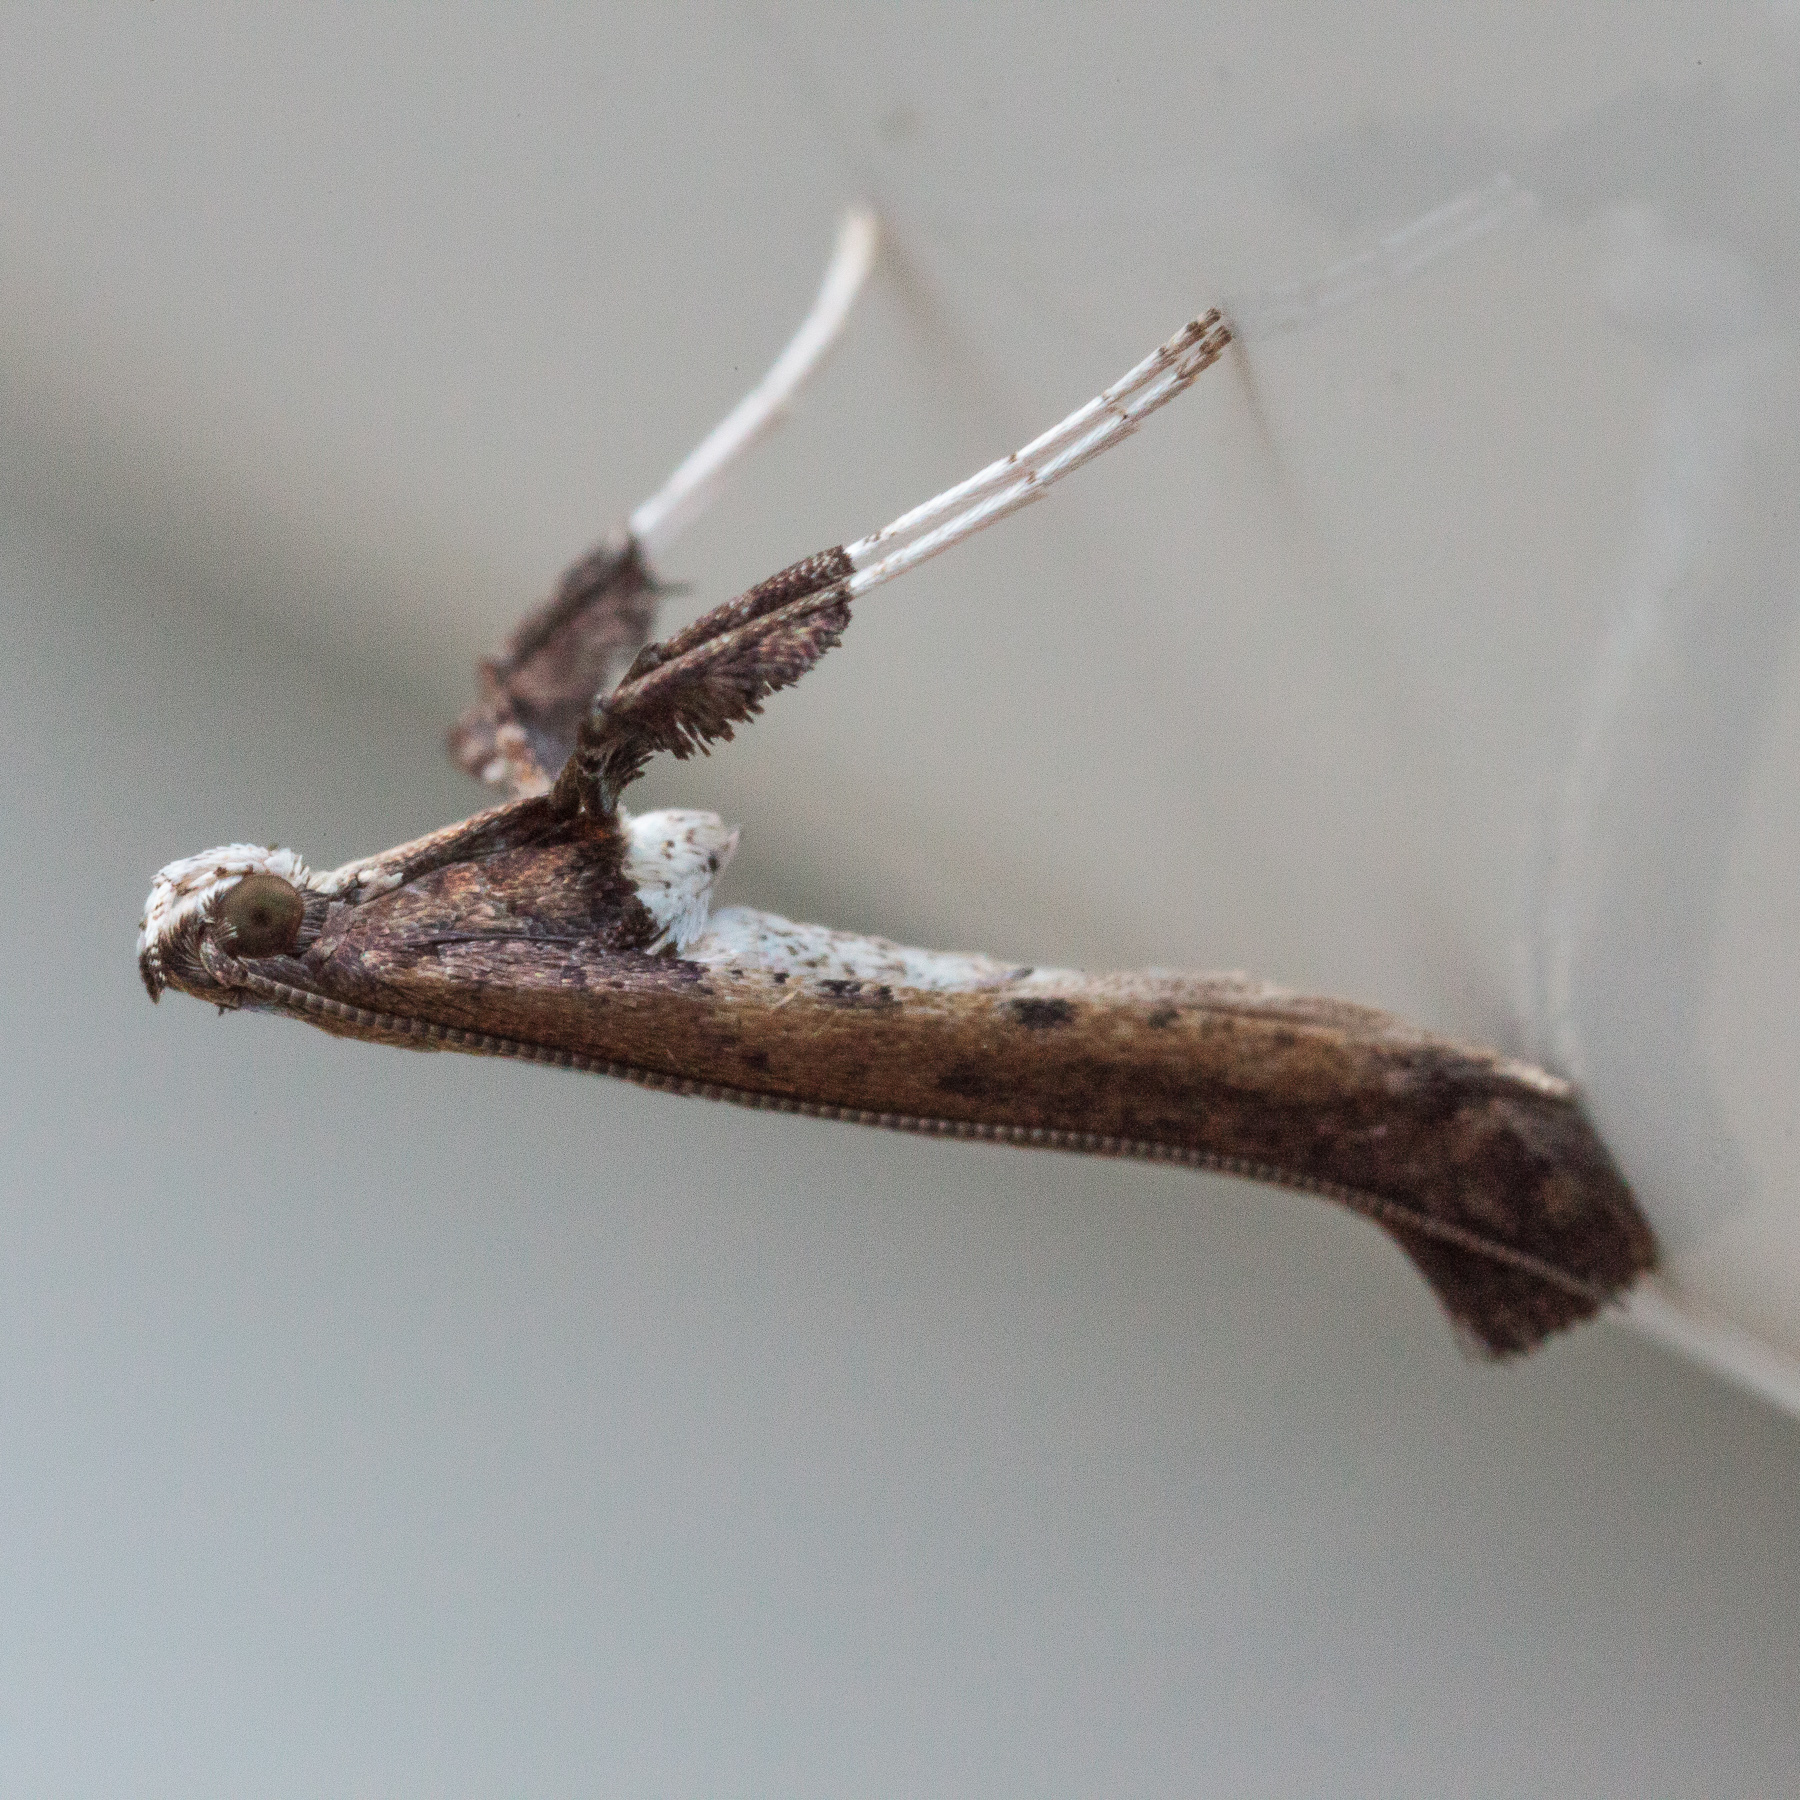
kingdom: Animalia
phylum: Arthropoda
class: Insecta
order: Lepidoptera
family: Gracillariidae
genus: Caloptilia
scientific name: Caloptilia rhoifoliella
